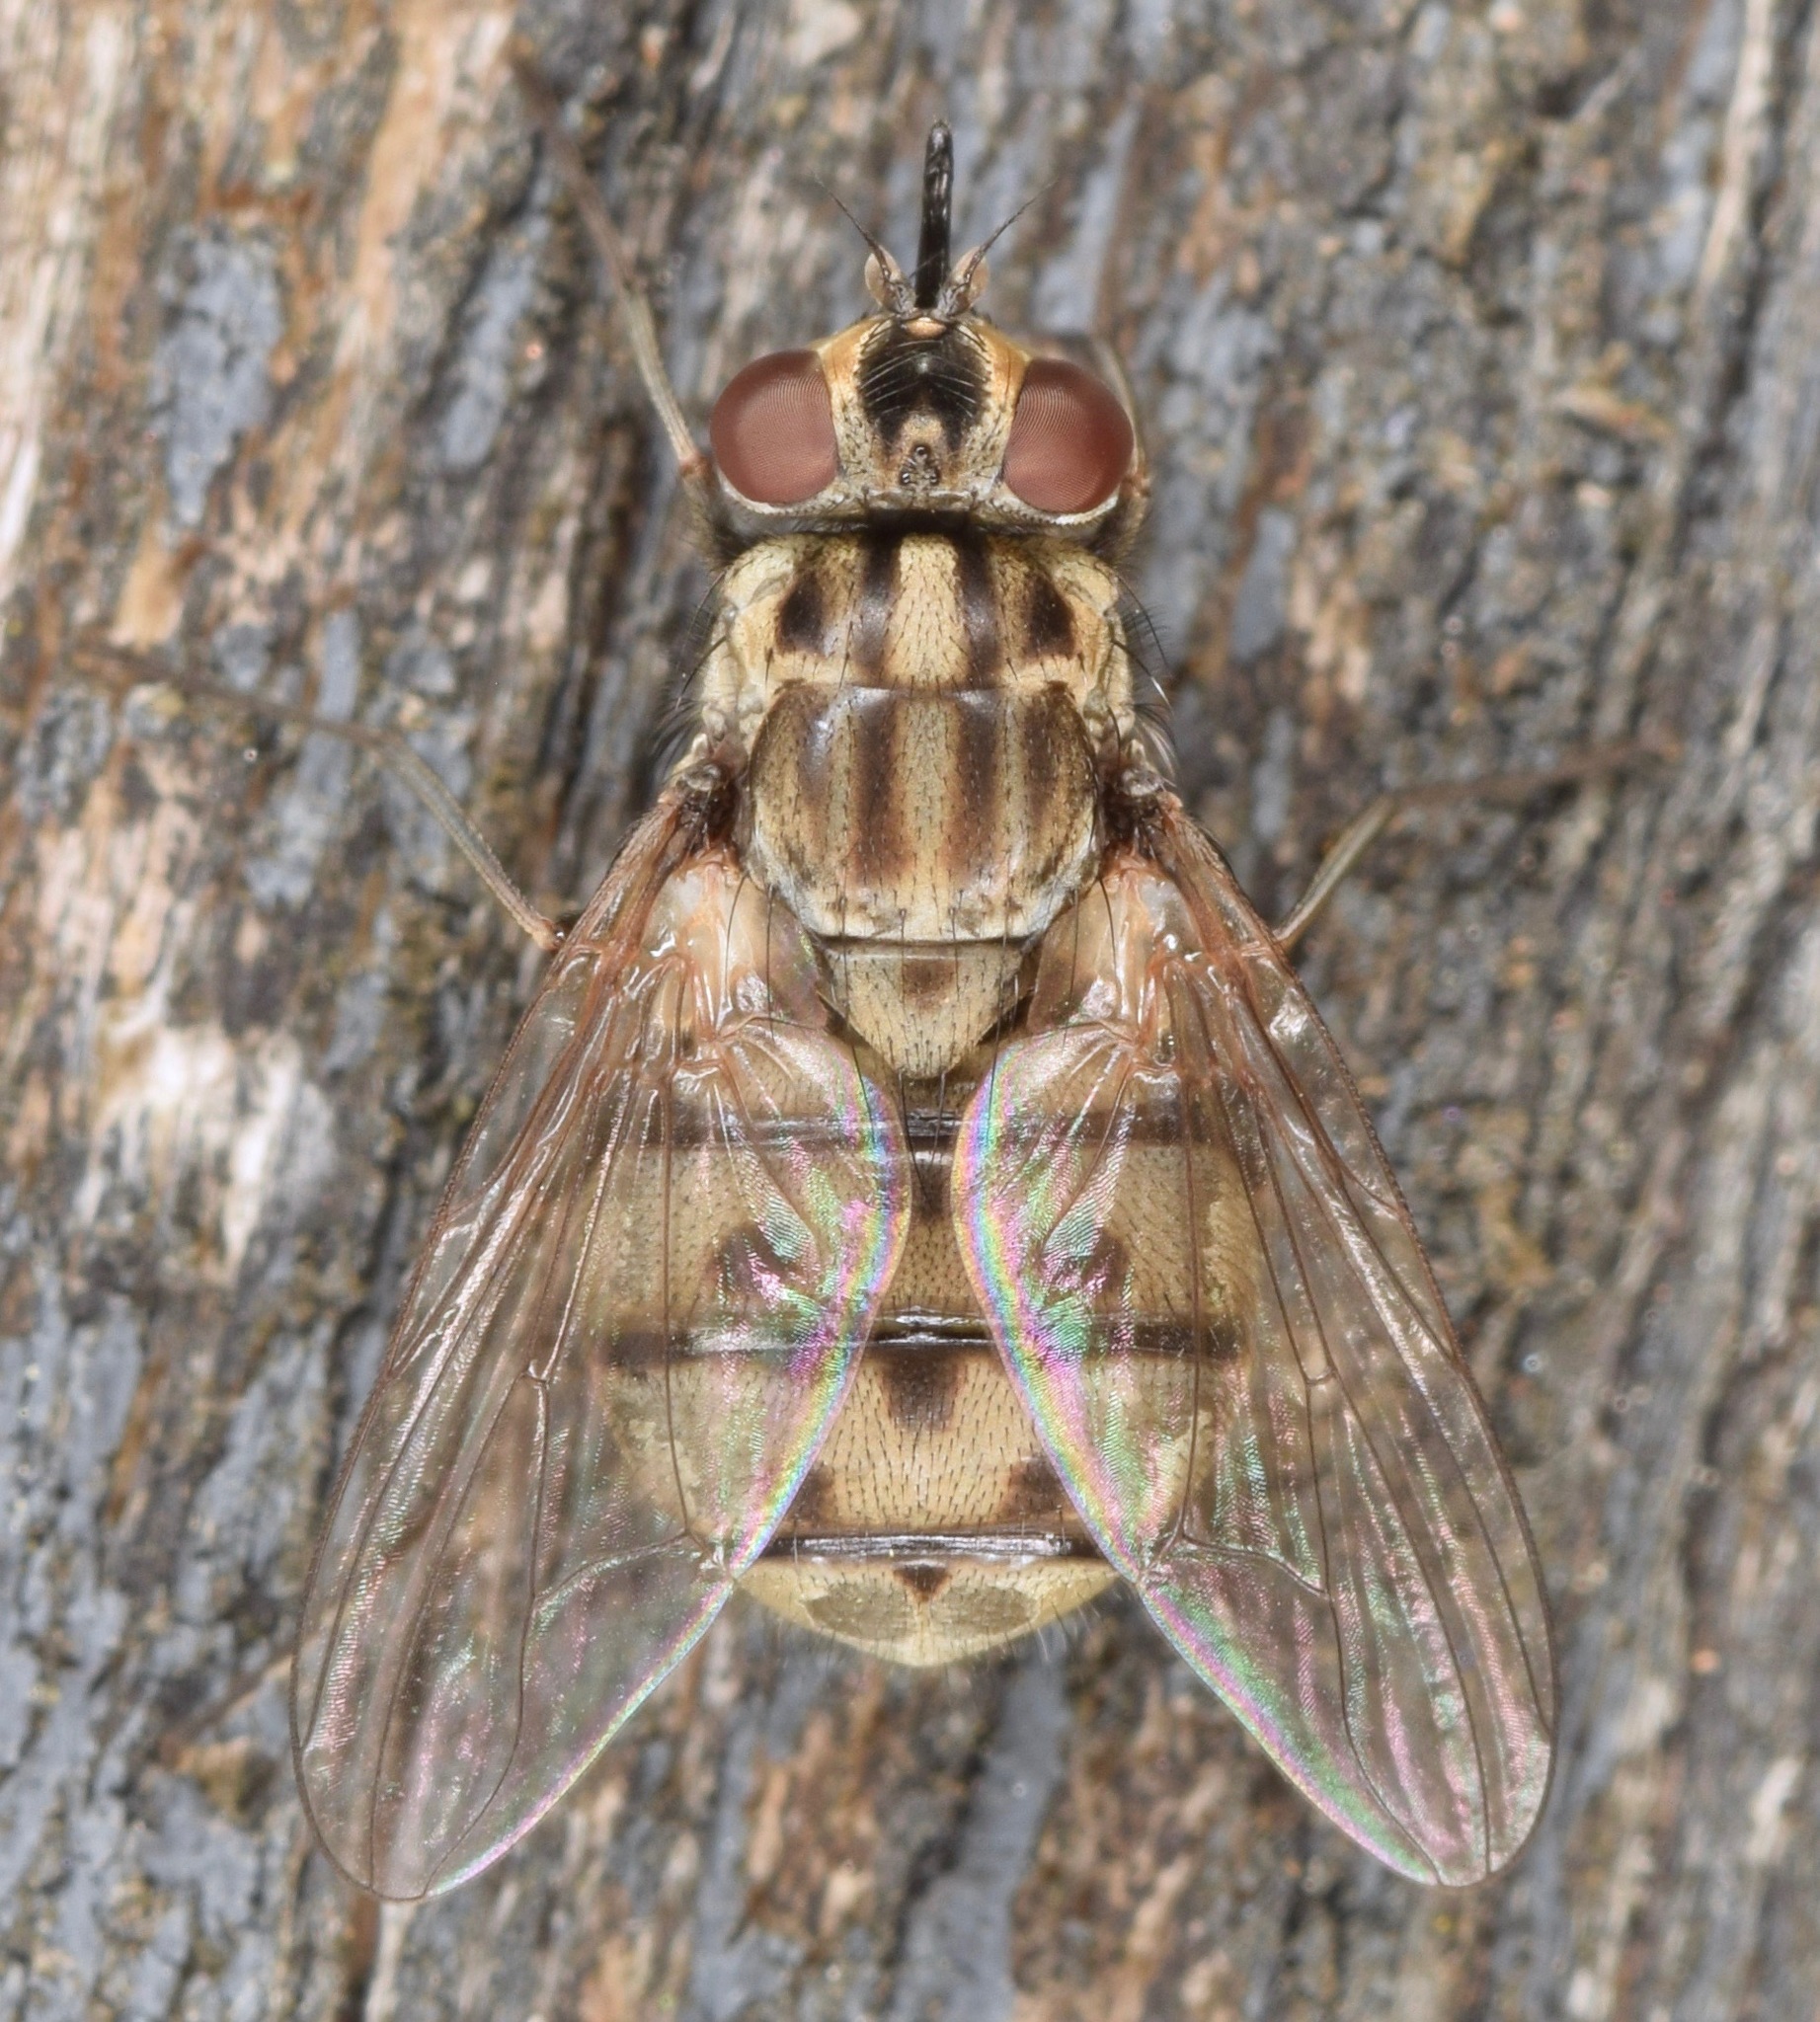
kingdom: Animalia
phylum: Arthropoda
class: Insecta
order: Diptera
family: Muscidae
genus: Stomoxys
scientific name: Stomoxys calcitrans
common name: Stable fly
